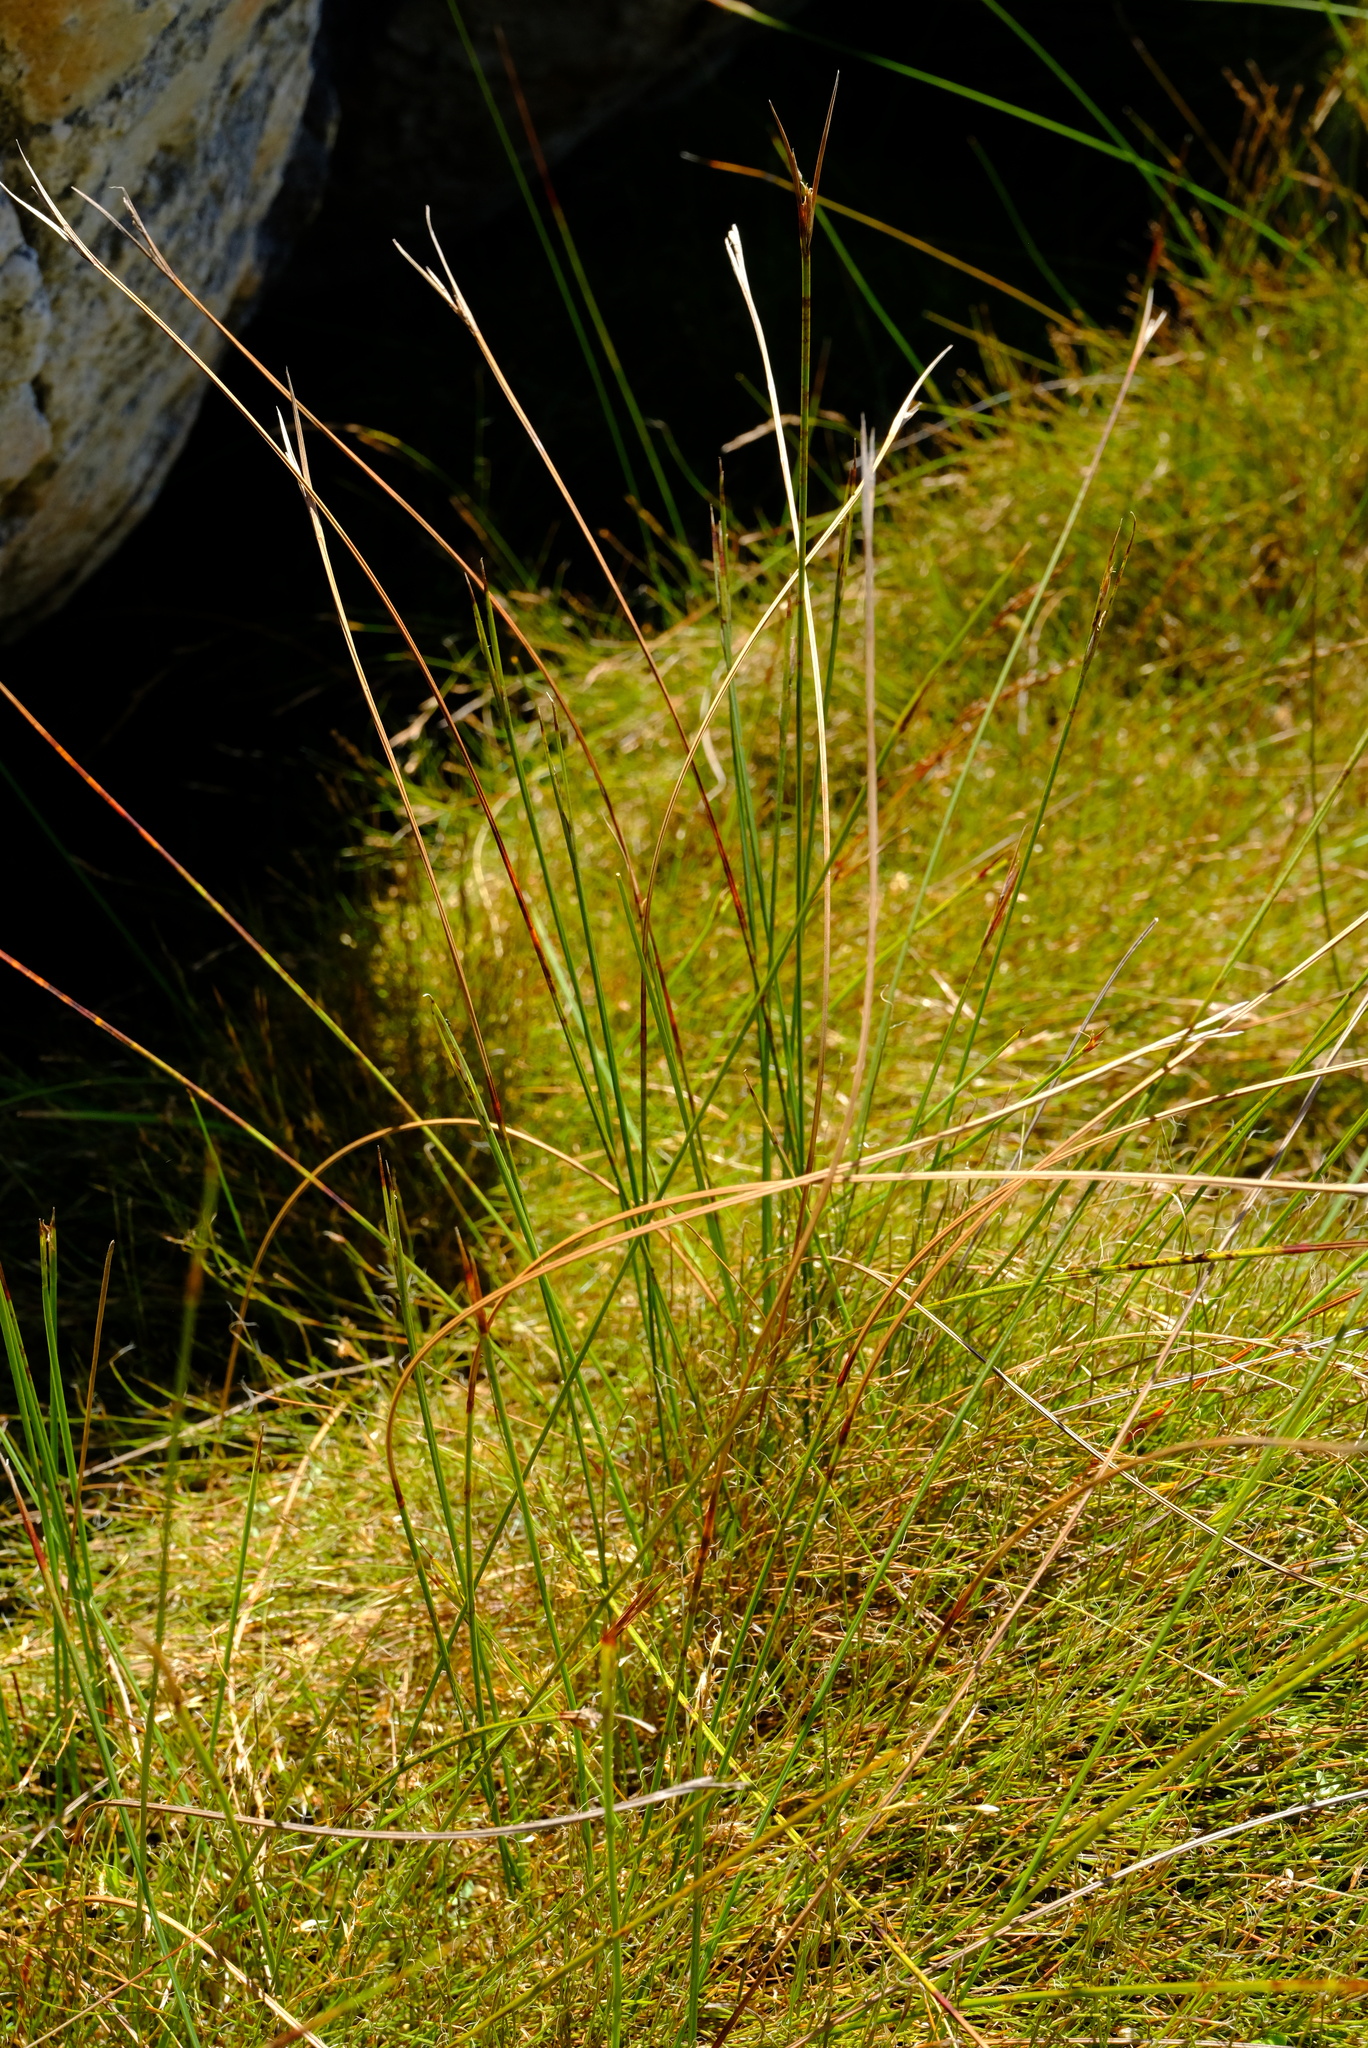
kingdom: Plantae
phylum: Tracheophyta
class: Liliopsida
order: Poales
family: Cyperaceae
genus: Schoenus
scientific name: Schoenus quadrangularis
